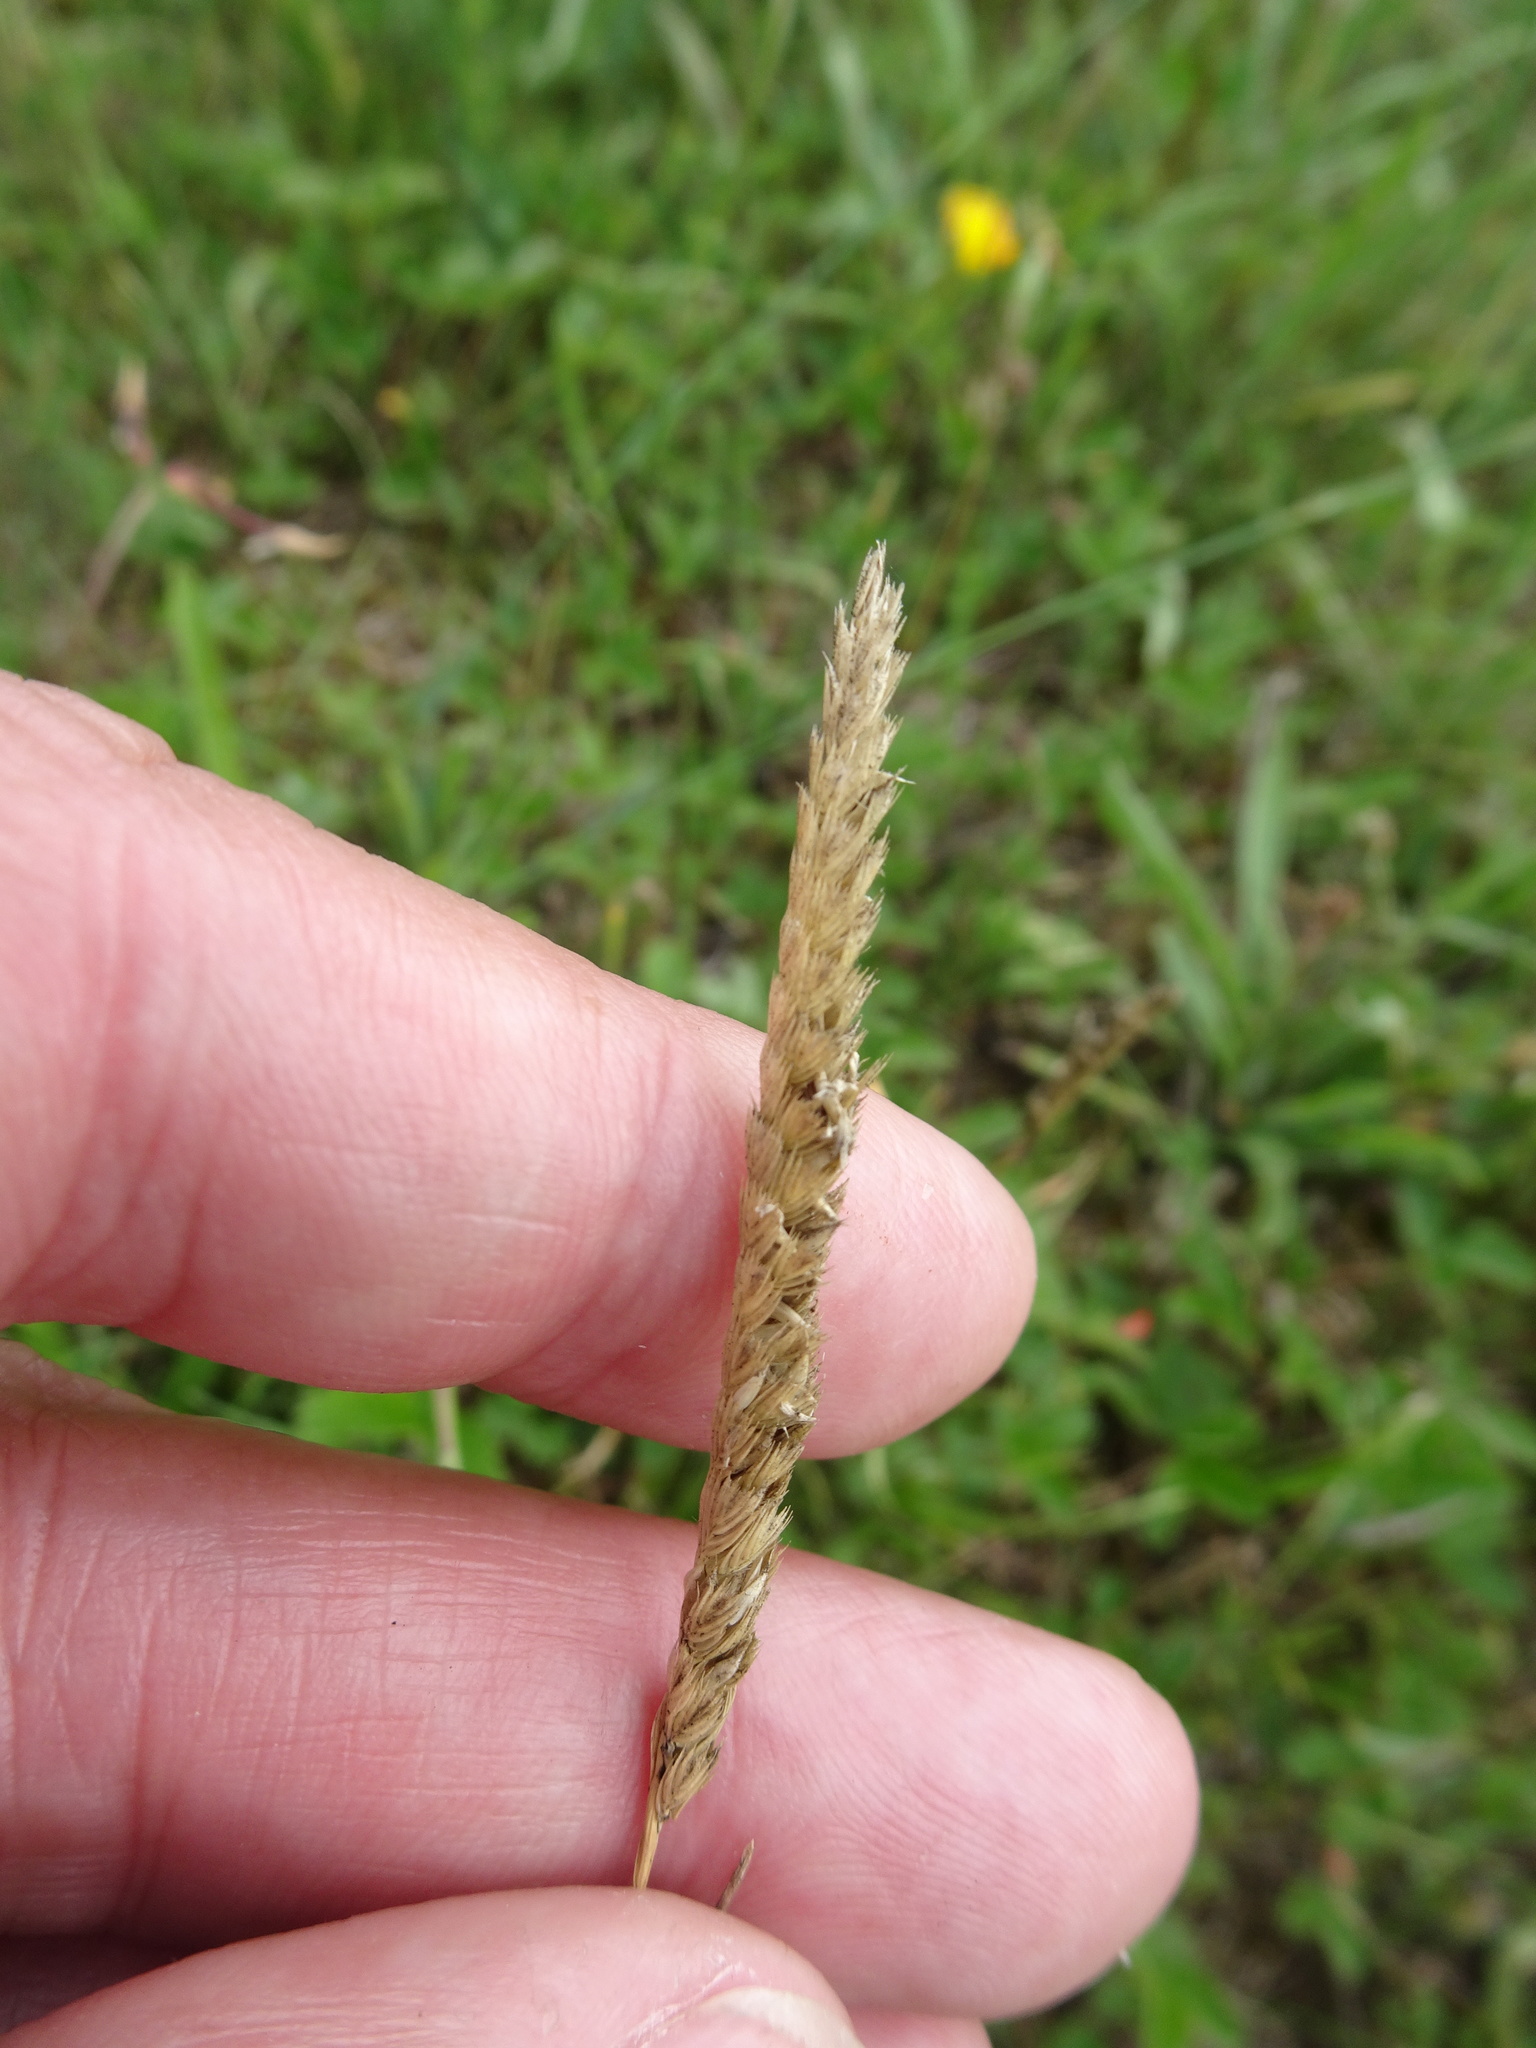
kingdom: Plantae
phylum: Tracheophyta
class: Liliopsida
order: Poales
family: Poaceae
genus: Cynosurus
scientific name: Cynosurus cristatus
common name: Crested dog's-tail
